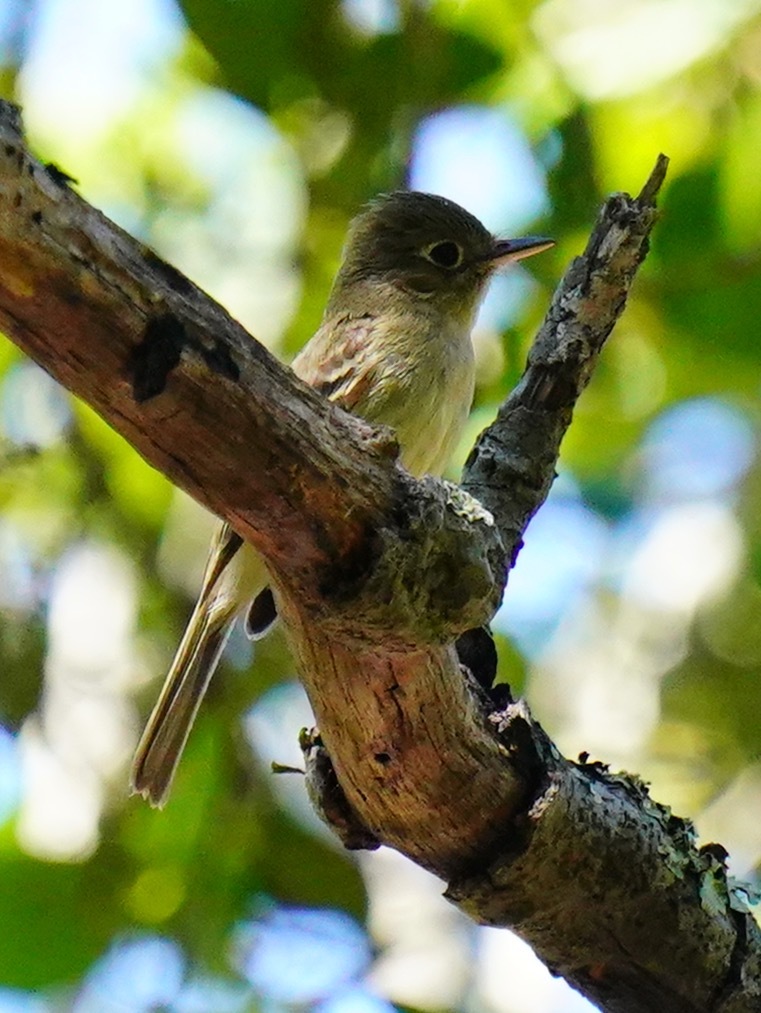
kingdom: Animalia
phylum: Chordata
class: Aves
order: Passeriformes
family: Tyrannidae
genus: Empidonax
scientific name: Empidonax difficilis
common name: Pacific-slope flycatcher
